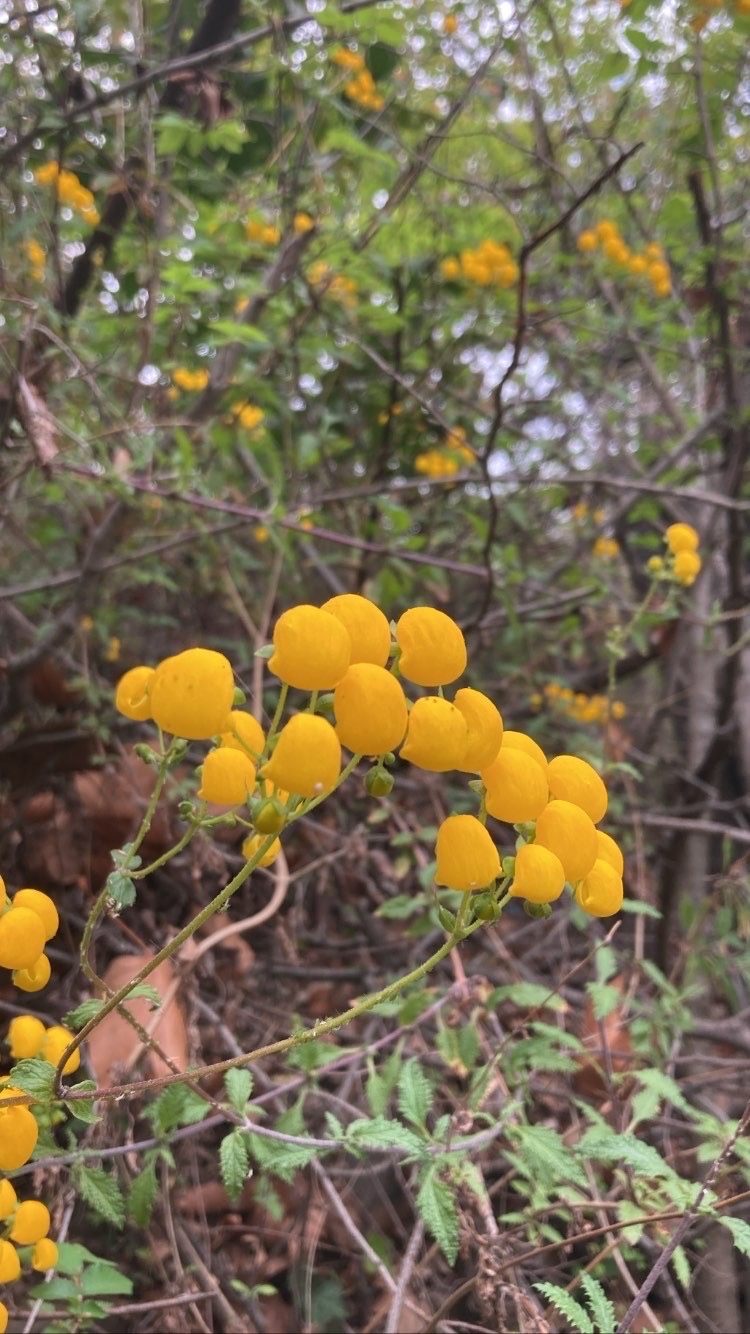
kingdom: Plantae
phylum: Tracheophyta
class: Magnoliopsida
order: Lamiales
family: Calceolariaceae
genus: Calceolaria
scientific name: Calceolaria ascendens
